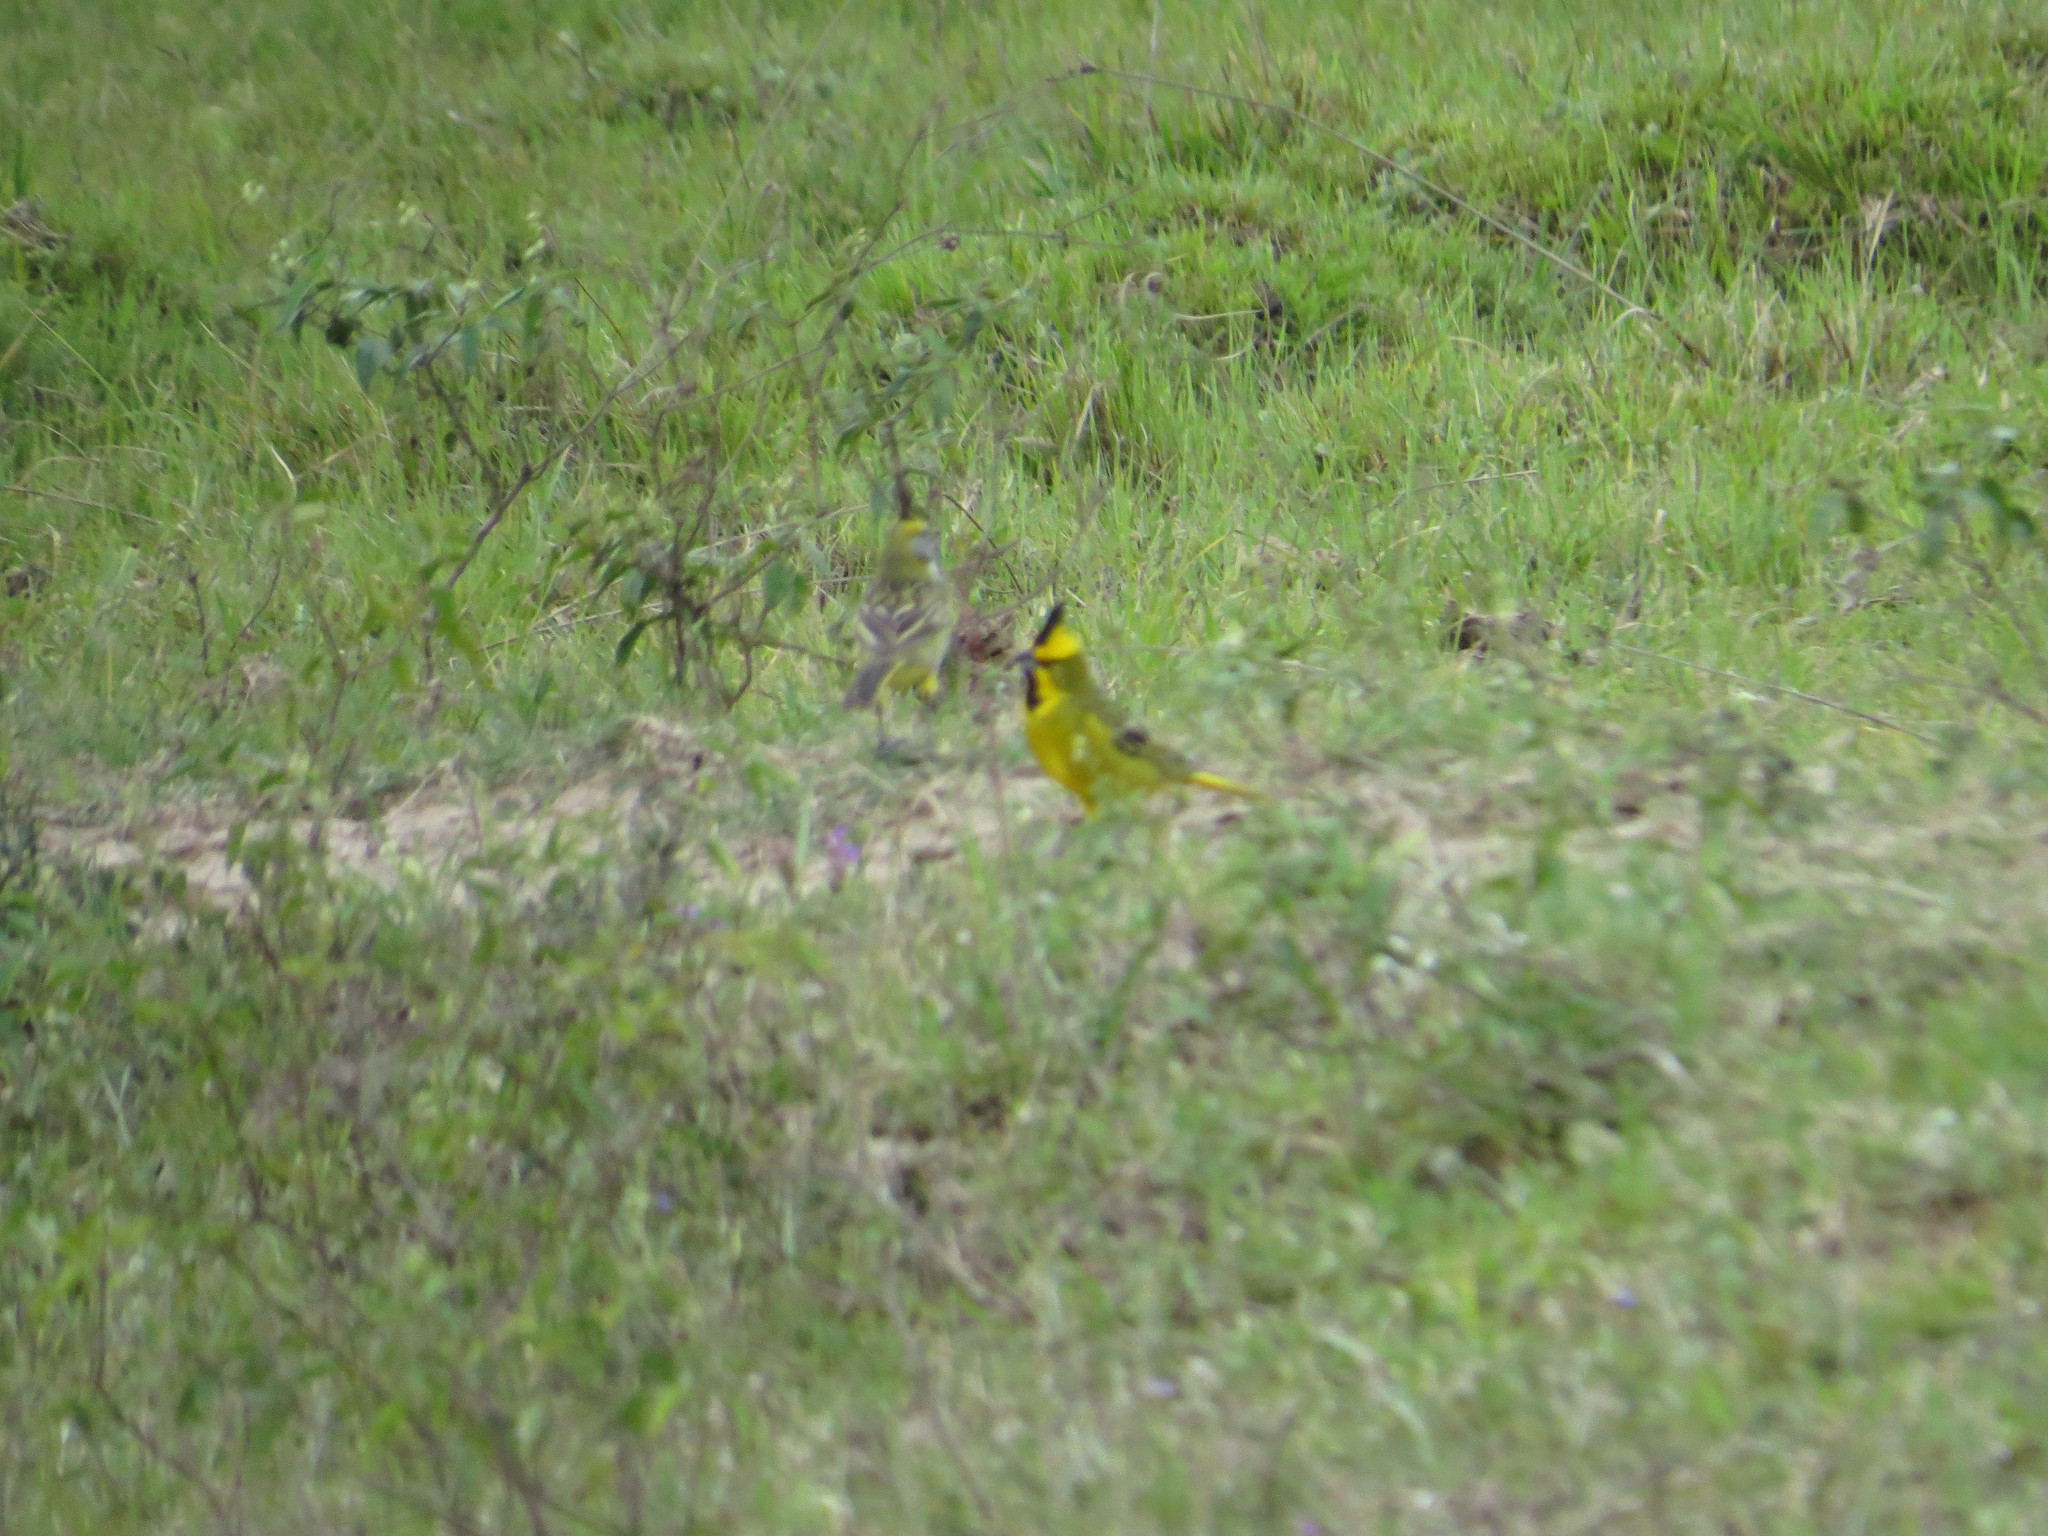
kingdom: Animalia
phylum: Chordata
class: Aves
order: Passeriformes
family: Thraupidae
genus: Gubernatrix
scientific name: Gubernatrix cristata
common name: Yellow cardinal
